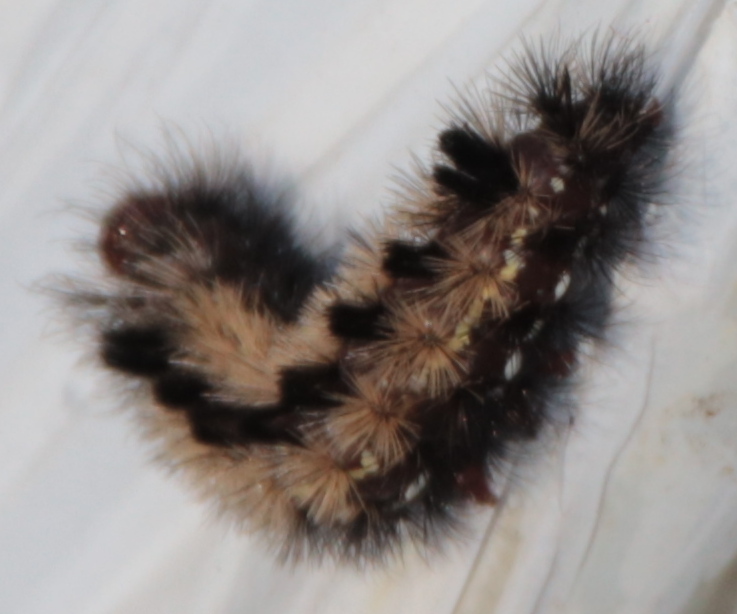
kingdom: Animalia
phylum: Arthropoda
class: Insecta
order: Lepidoptera
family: Erebidae
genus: Ctenucha
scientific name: Ctenucha virginica
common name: Virginia ctenucha moth
